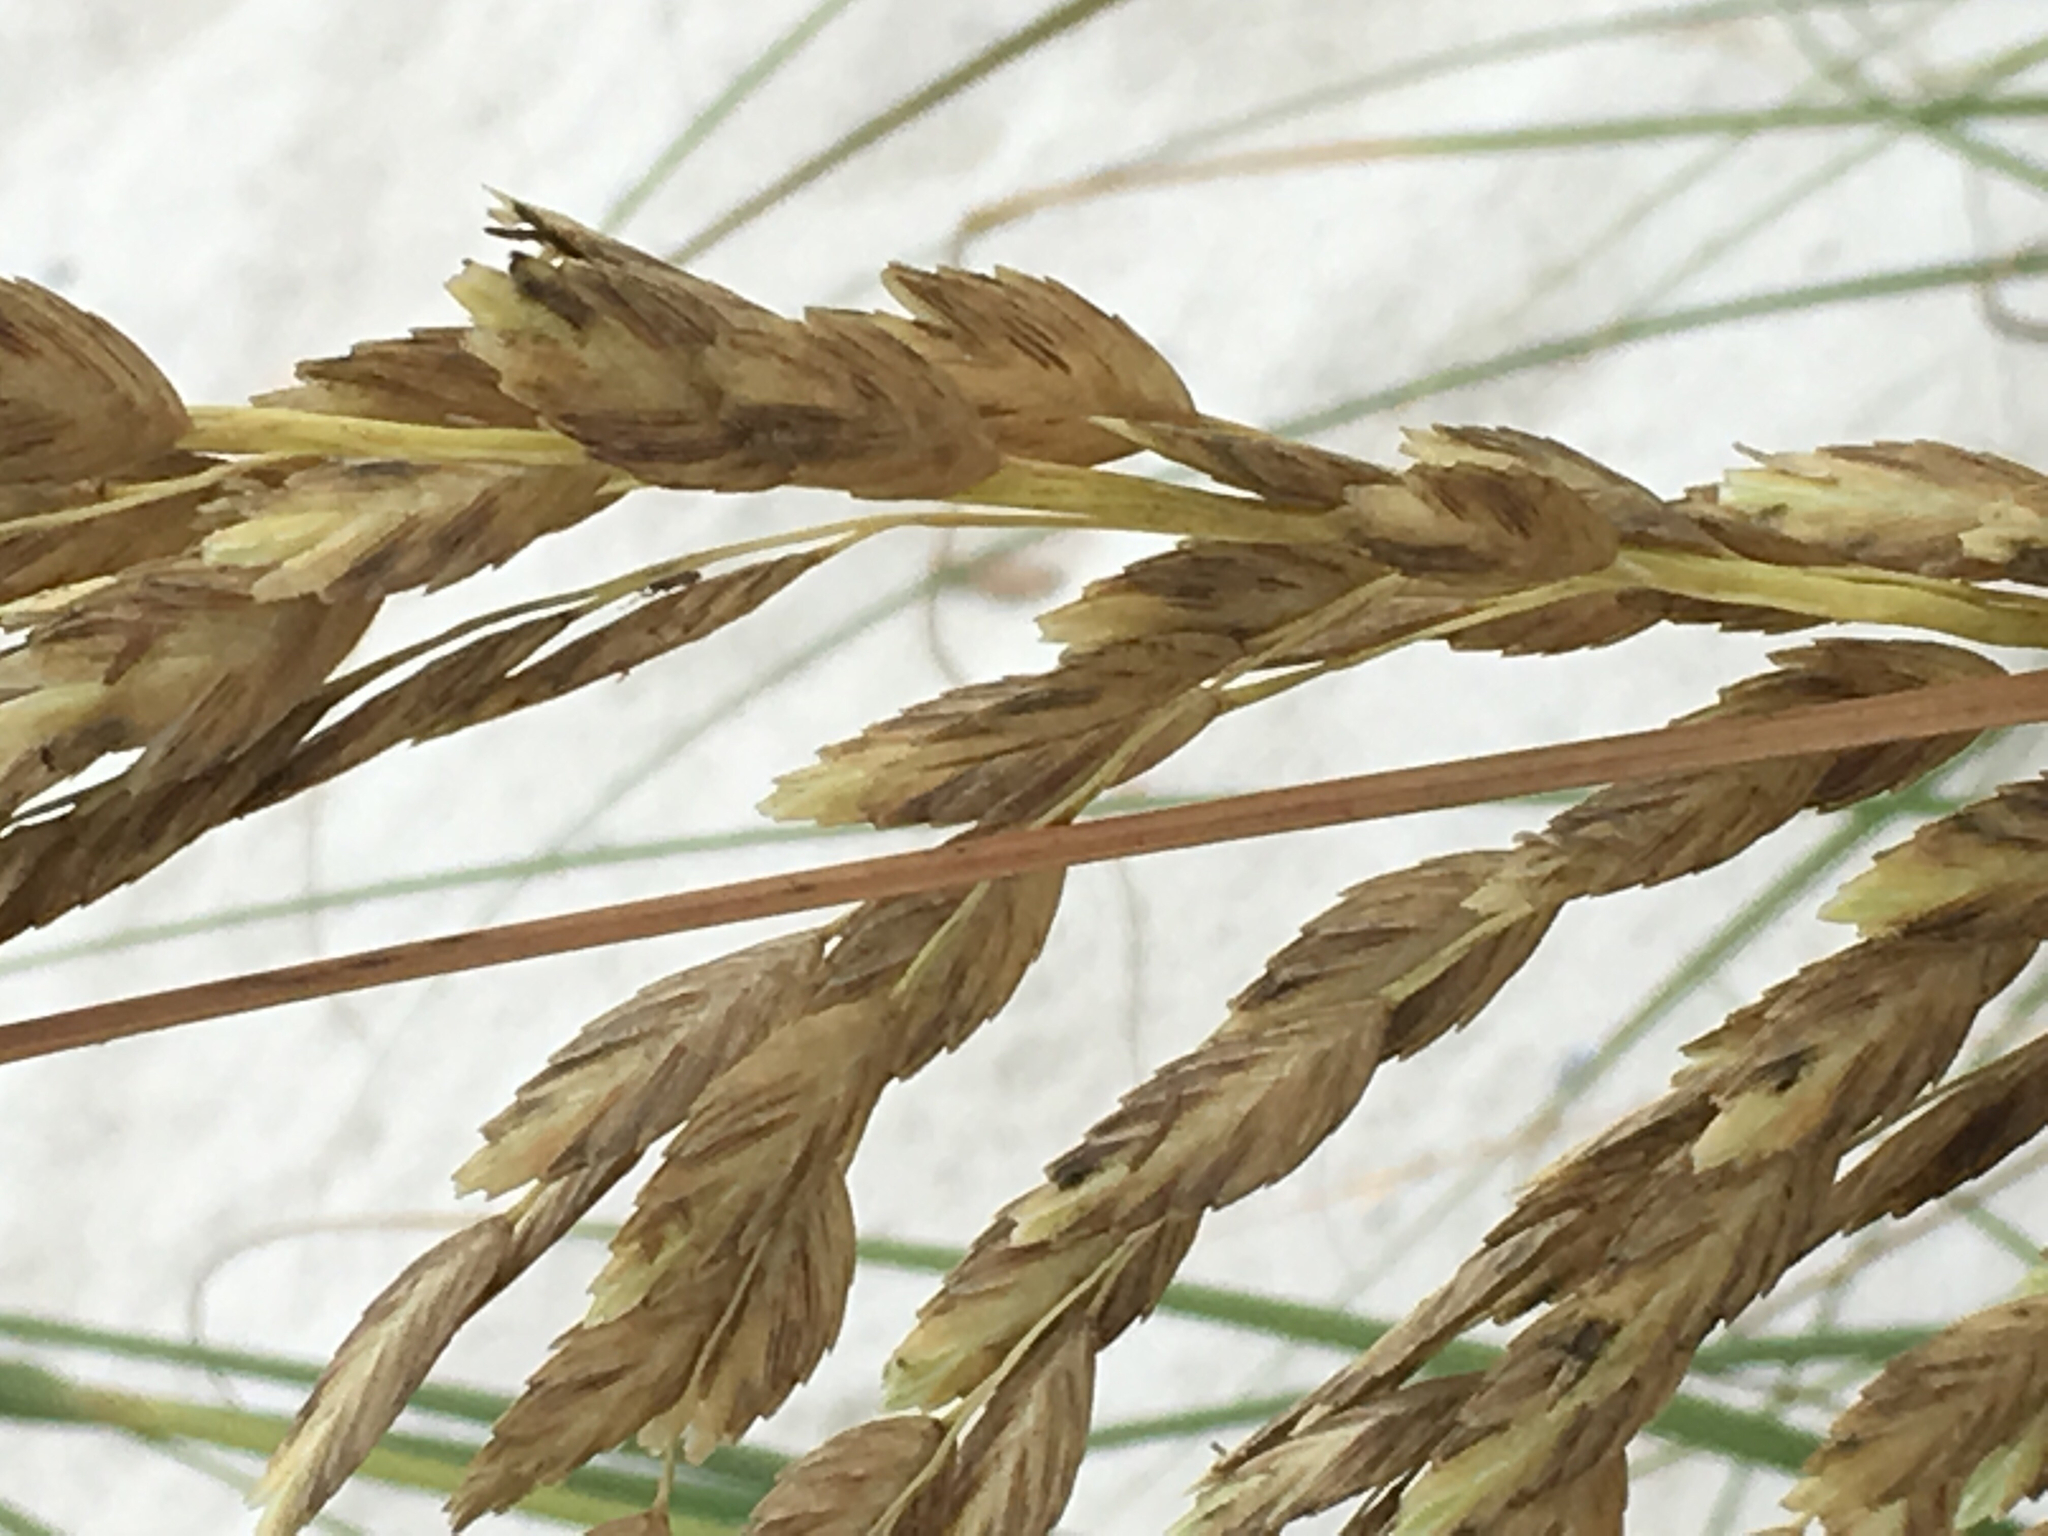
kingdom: Plantae
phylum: Tracheophyta
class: Liliopsida
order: Poales
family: Poaceae
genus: Uniola
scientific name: Uniola paniculata
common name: Seaside-oats
